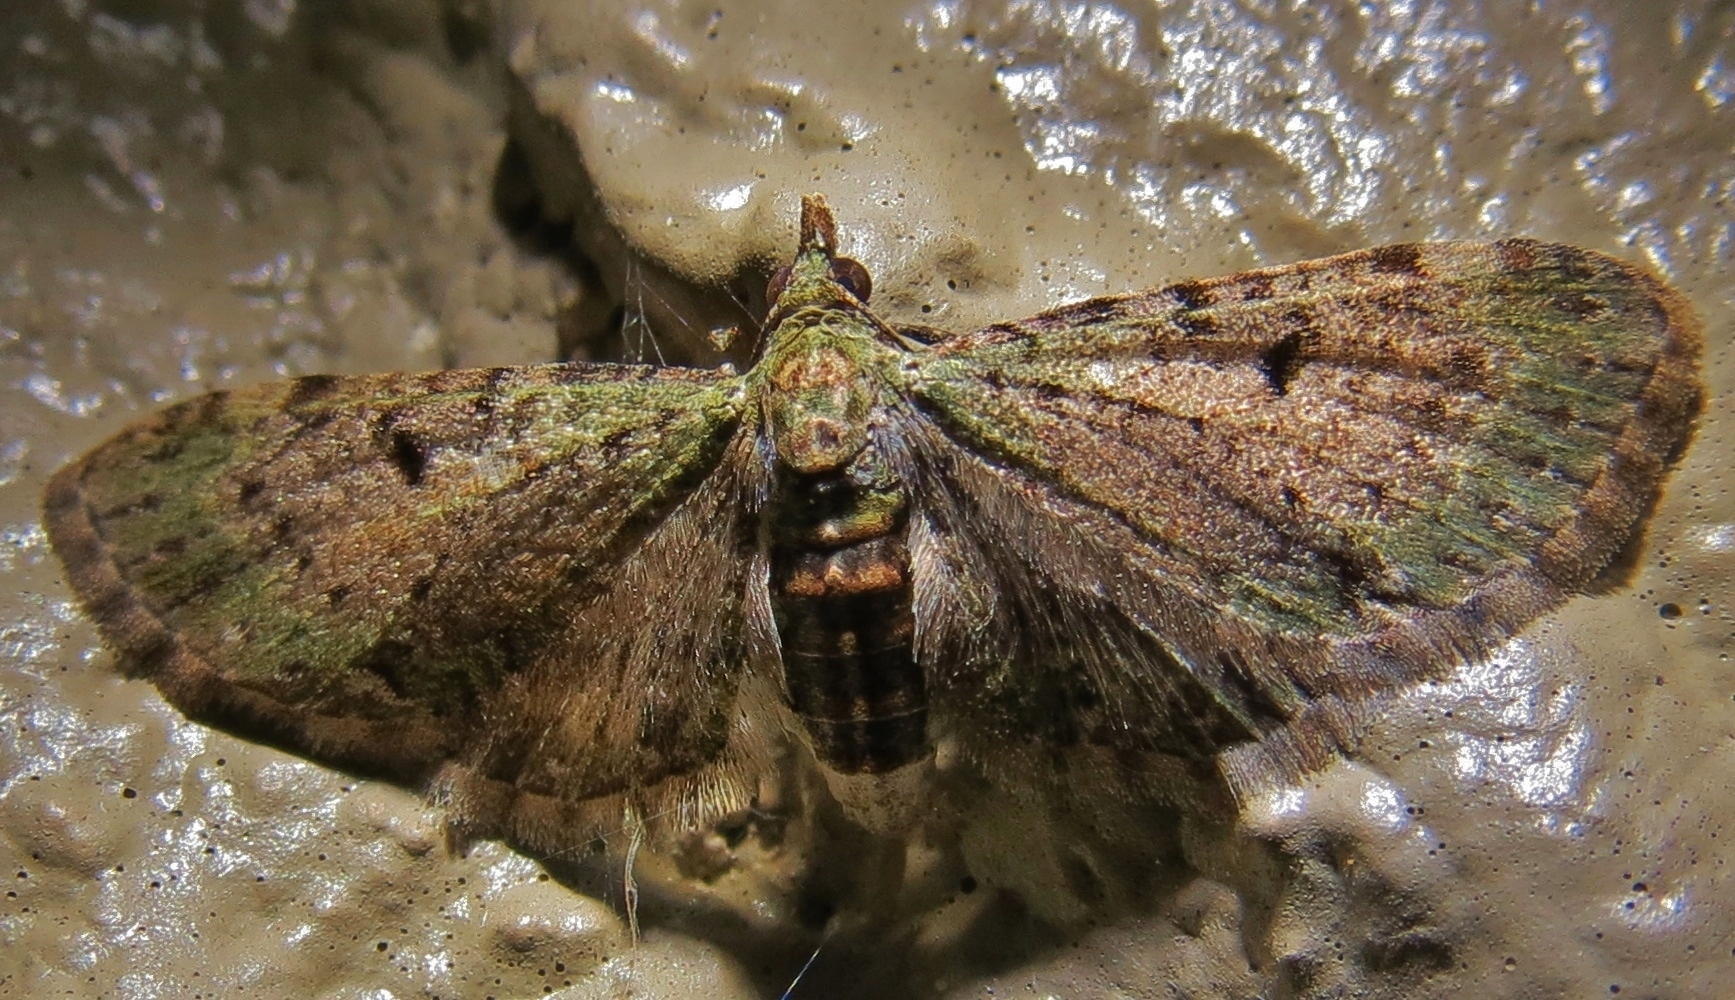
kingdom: Animalia
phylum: Arthropoda
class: Insecta
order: Lepidoptera
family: Geometridae
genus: Eupithecia
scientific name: Eupithecia miserulata
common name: Common eupithecia
